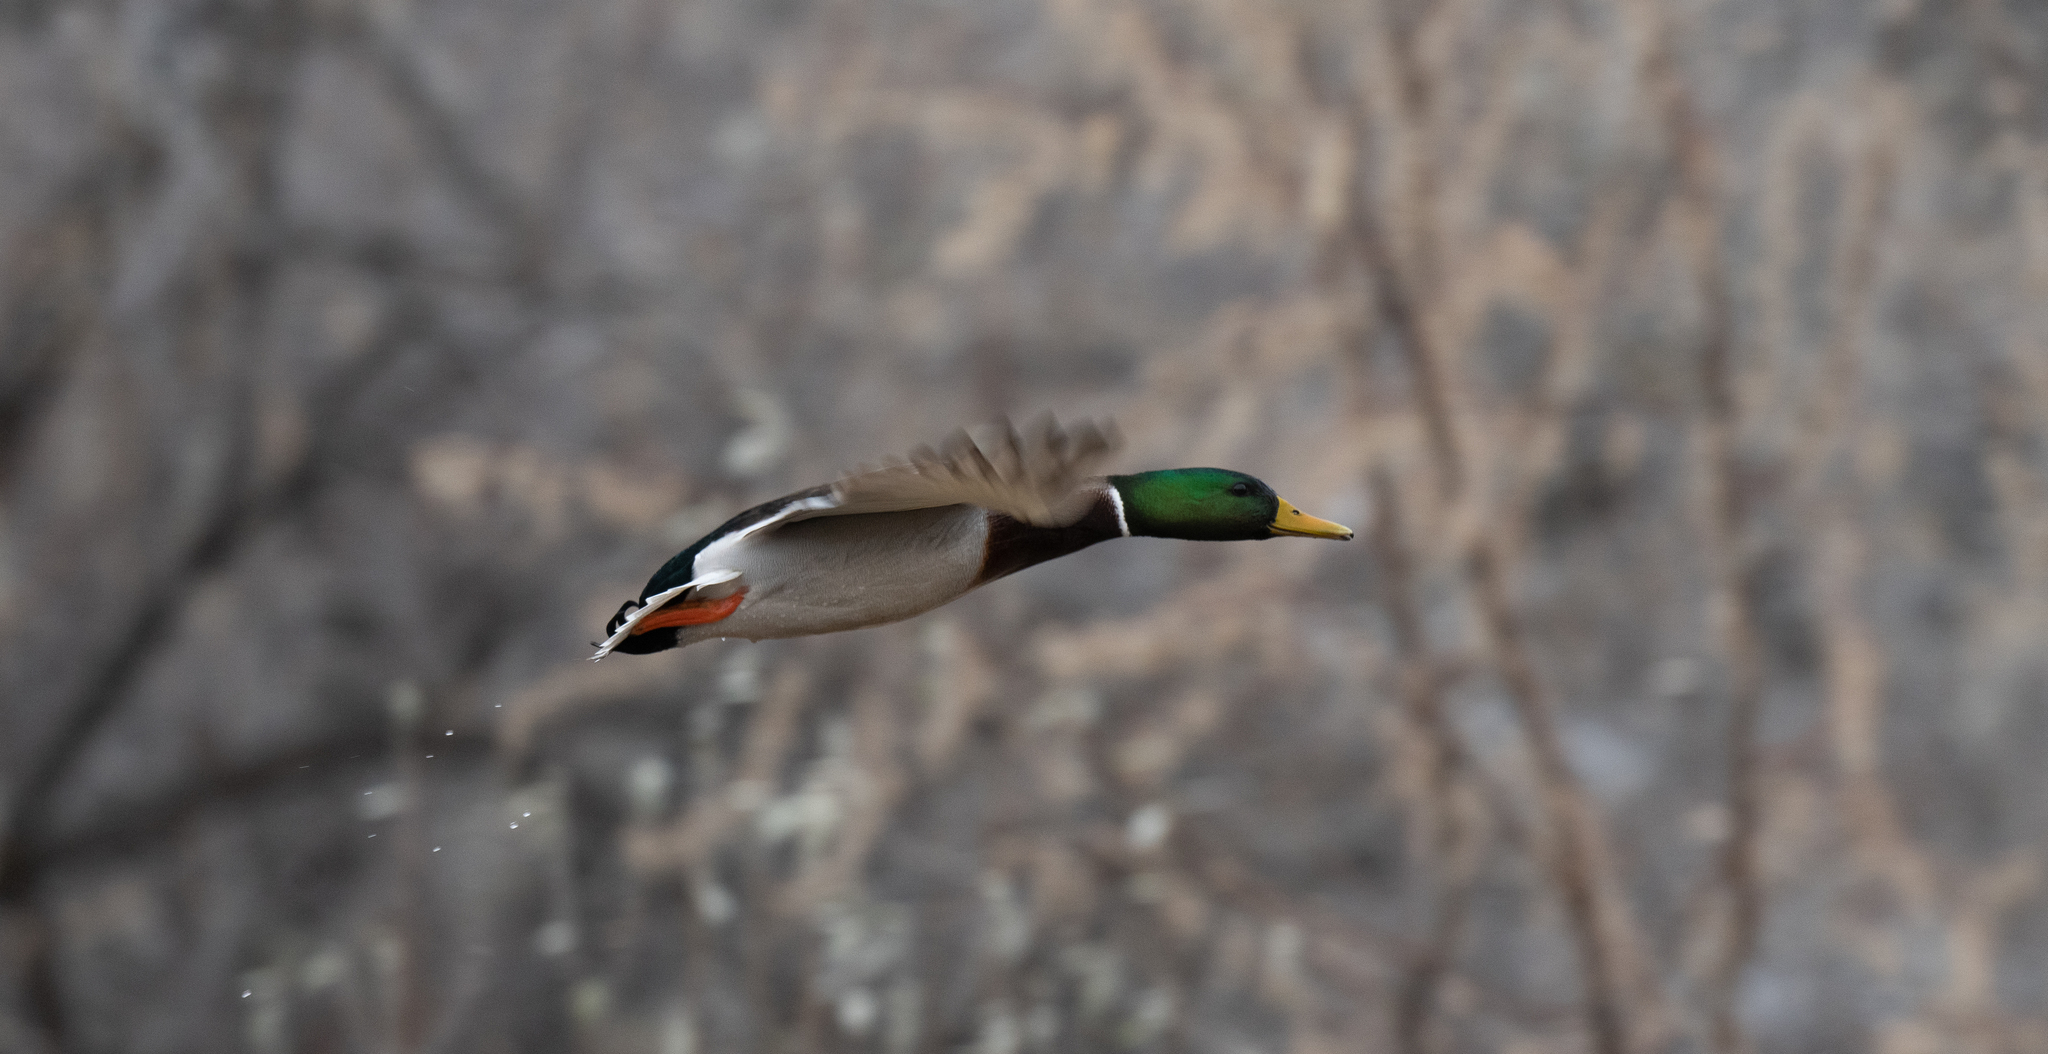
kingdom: Animalia
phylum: Chordata
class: Aves
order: Anseriformes
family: Anatidae
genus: Anas
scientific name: Anas platyrhynchos
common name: Mallard
